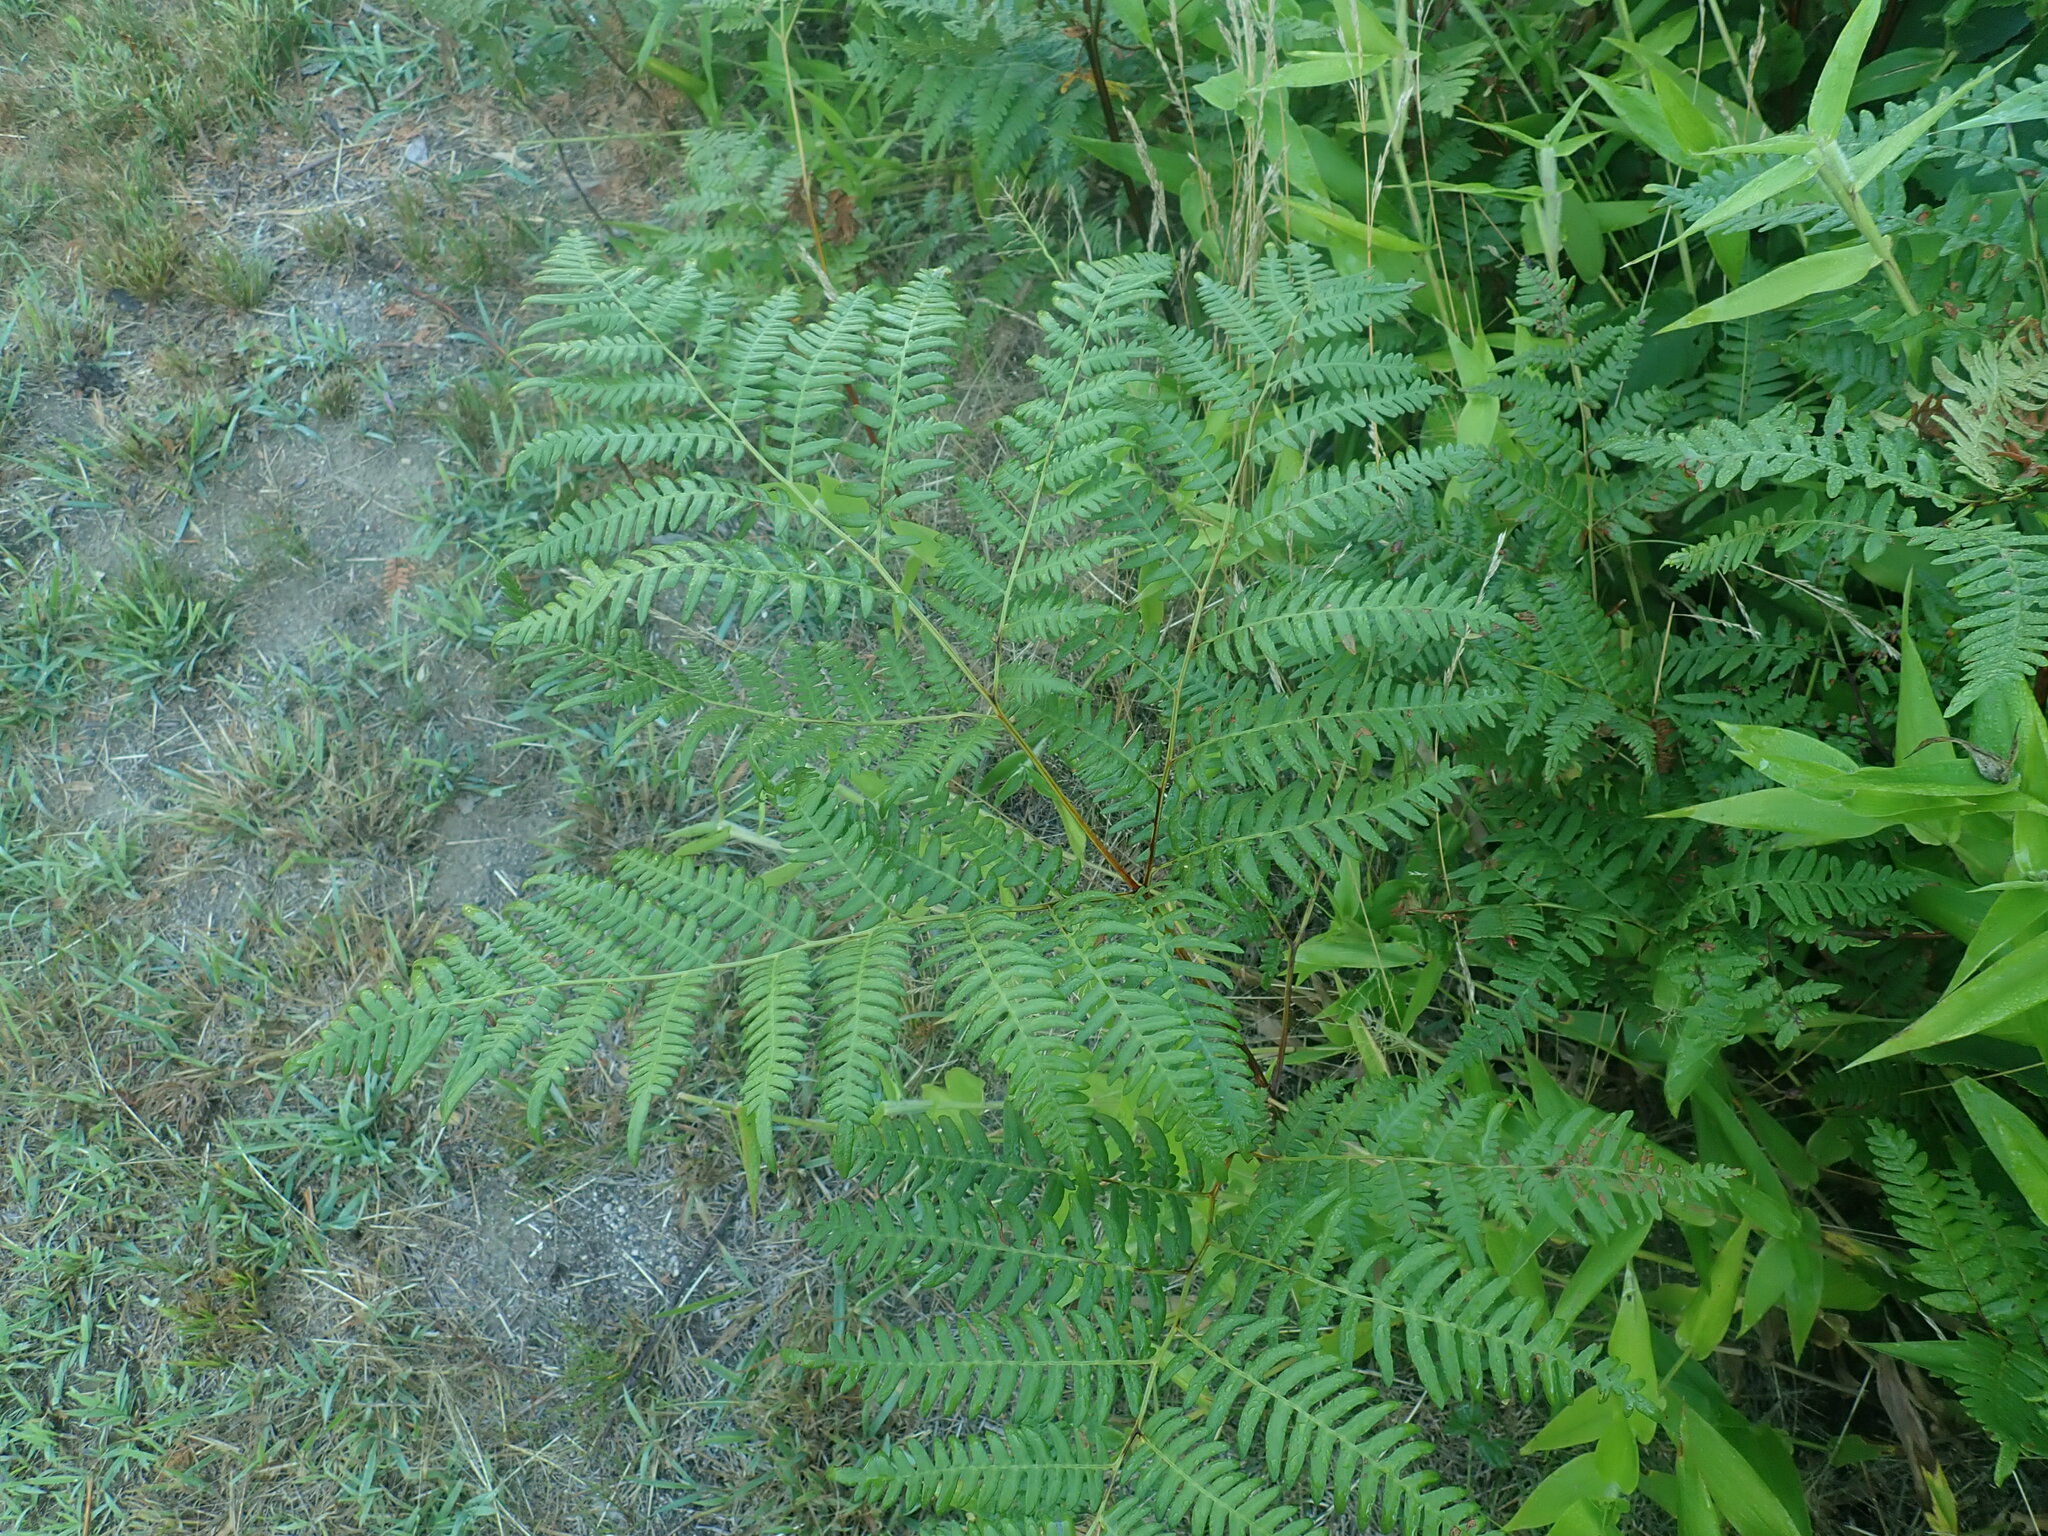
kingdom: Plantae
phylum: Tracheophyta
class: Polypodiopsida
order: Polypodiales
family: Dennstaedtiaceae
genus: Pteridium
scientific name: Pteridium aquilinum
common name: Bracken
